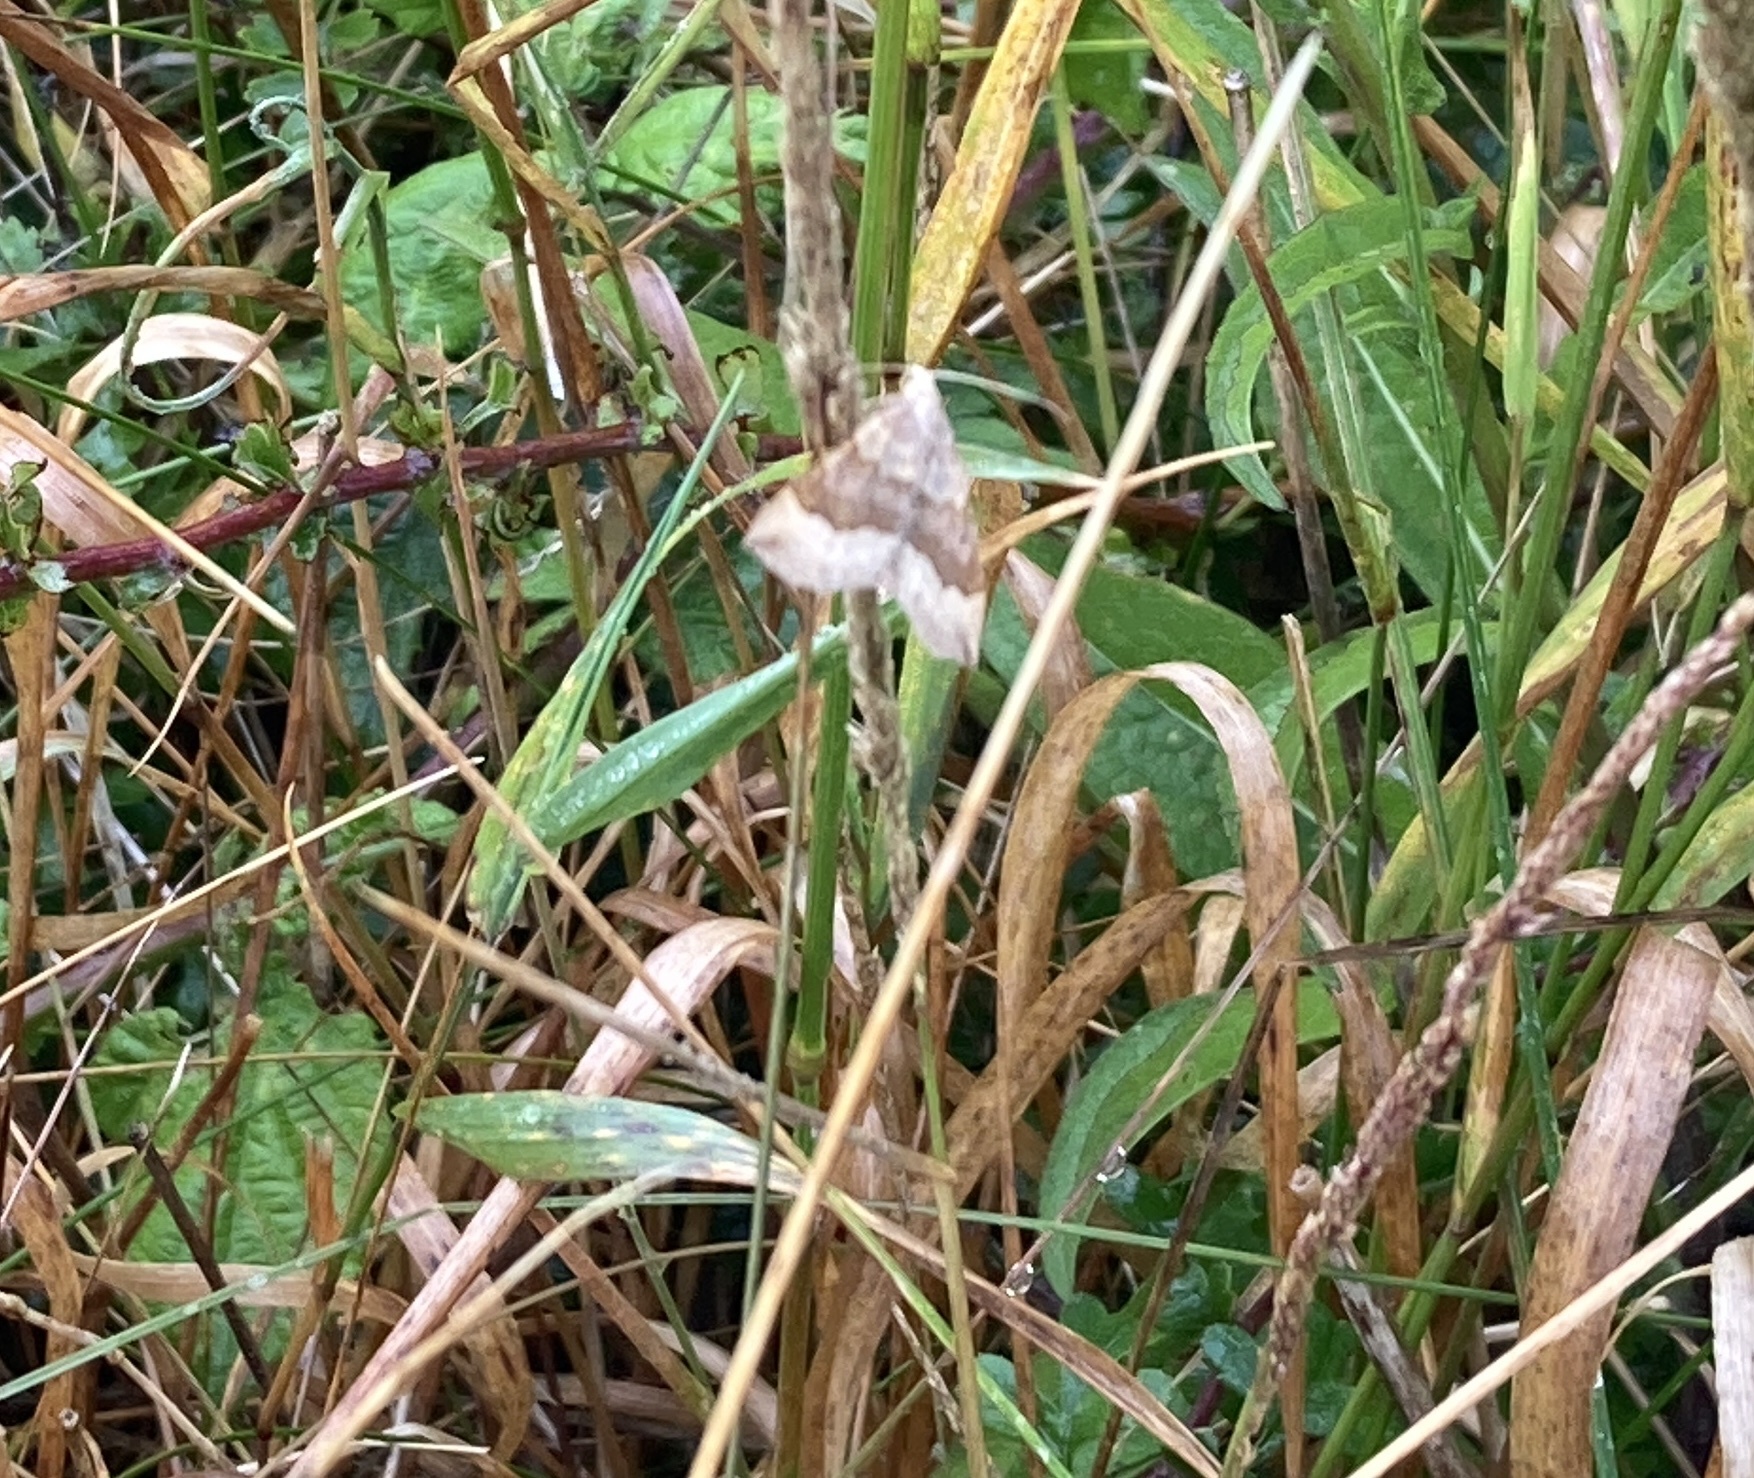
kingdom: Animalia
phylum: Arthropoda
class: Insecta
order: Lepidoptera
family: Geometridae
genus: Scotopteryx
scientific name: Scotopteryx chenopodiata
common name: Shaded broad-bar
